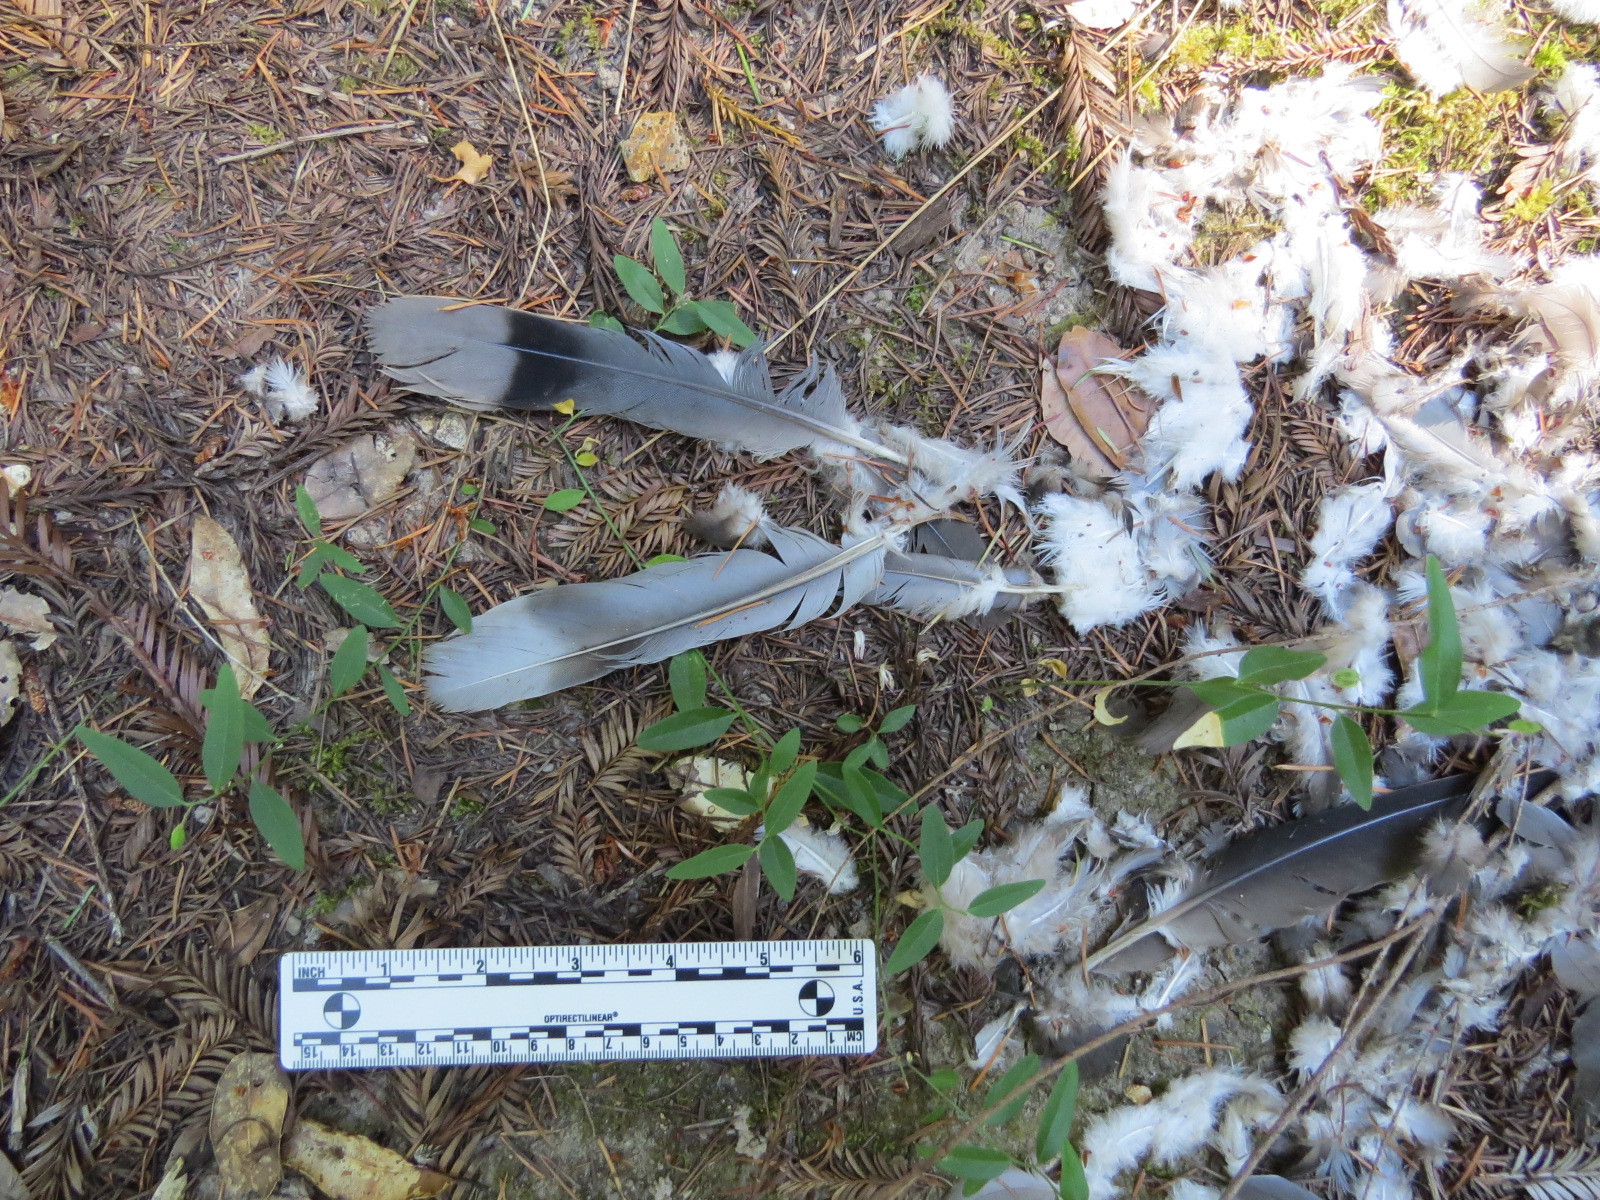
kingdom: Animalia
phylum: Chordata
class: Aves
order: Columbiformes
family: Columbidae
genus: Patagioenas
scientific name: Patagioenas fasciata
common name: Band-tailed pigeon
